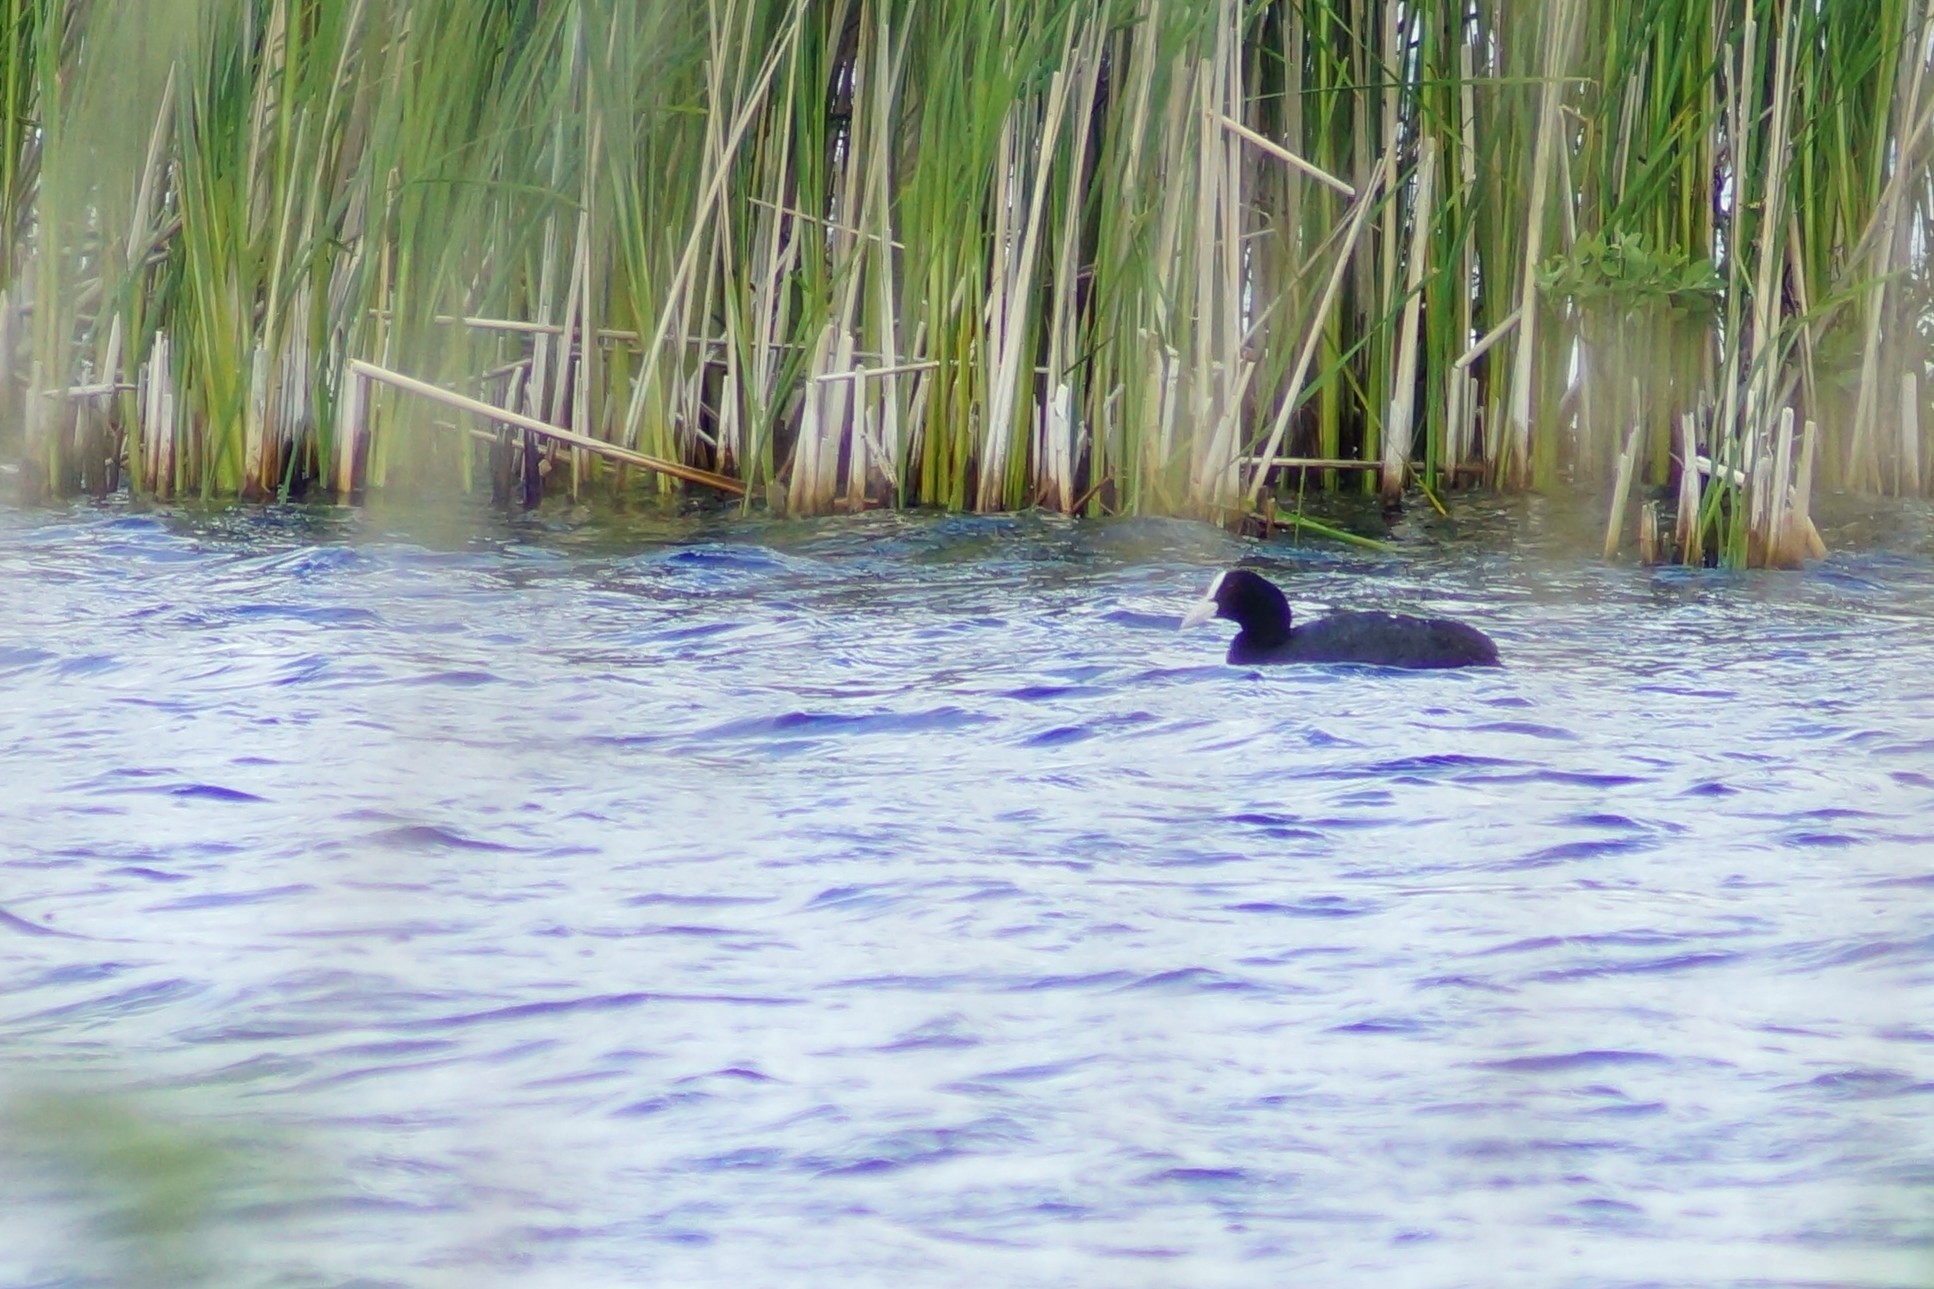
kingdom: Animalia
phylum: Chordata
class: Aves
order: Gruiformes
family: Rallidae
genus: Fulica
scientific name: Fulica atra
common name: Eurasian coot
